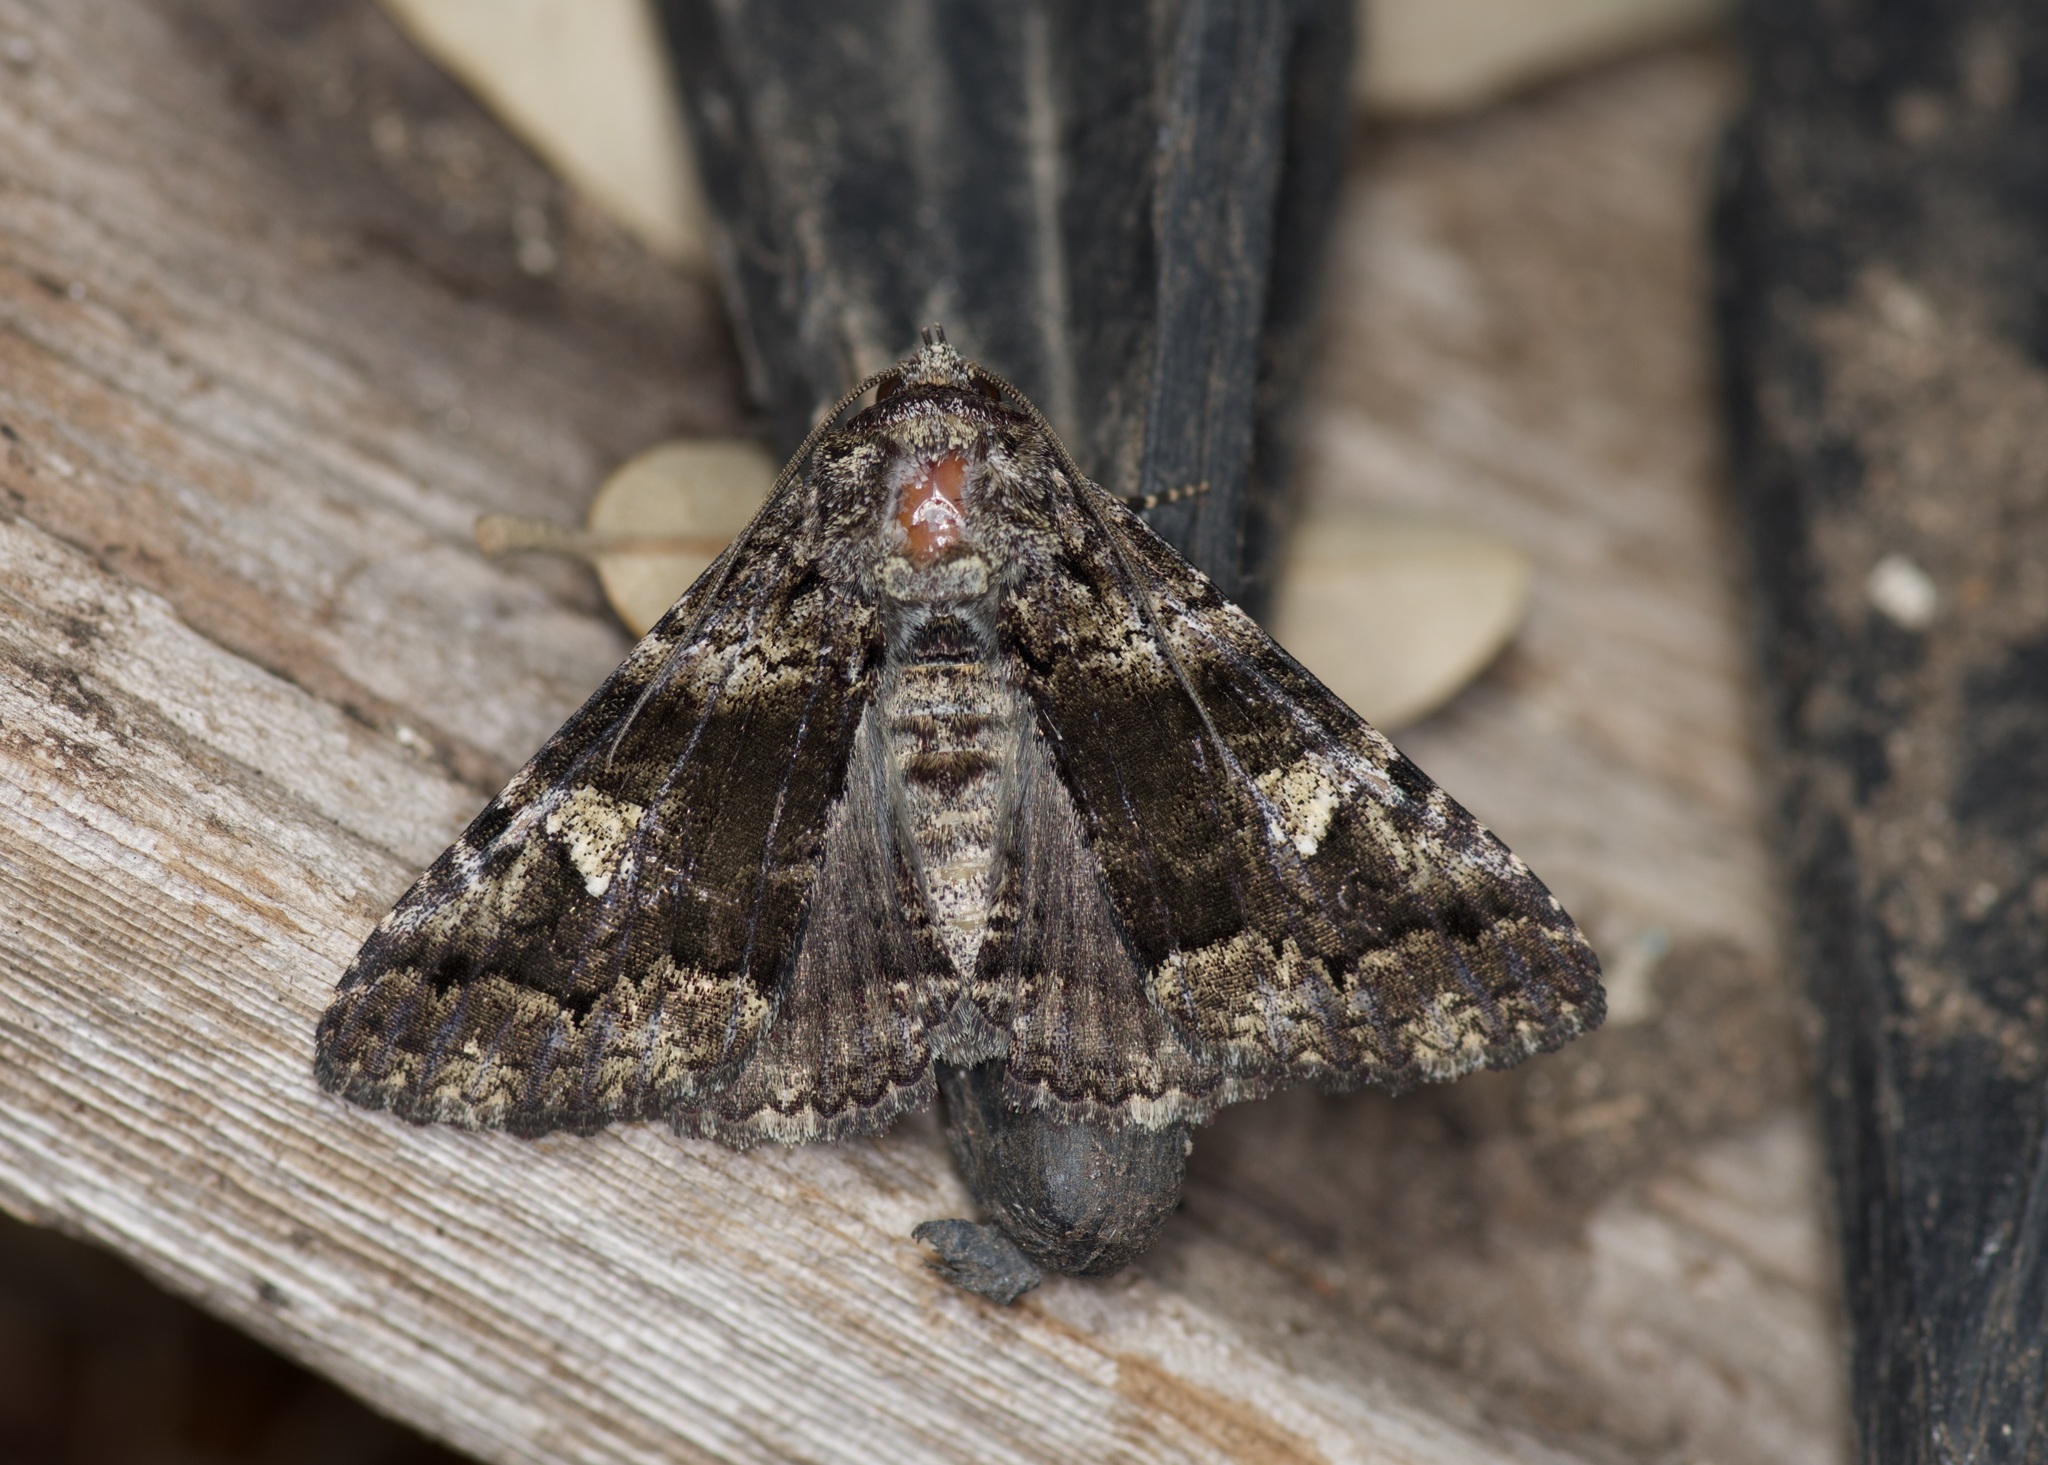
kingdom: Animalia
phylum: Arthropoda
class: Insecta
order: Lepidoptera
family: Erebidae
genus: Metria
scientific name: Metria amella
